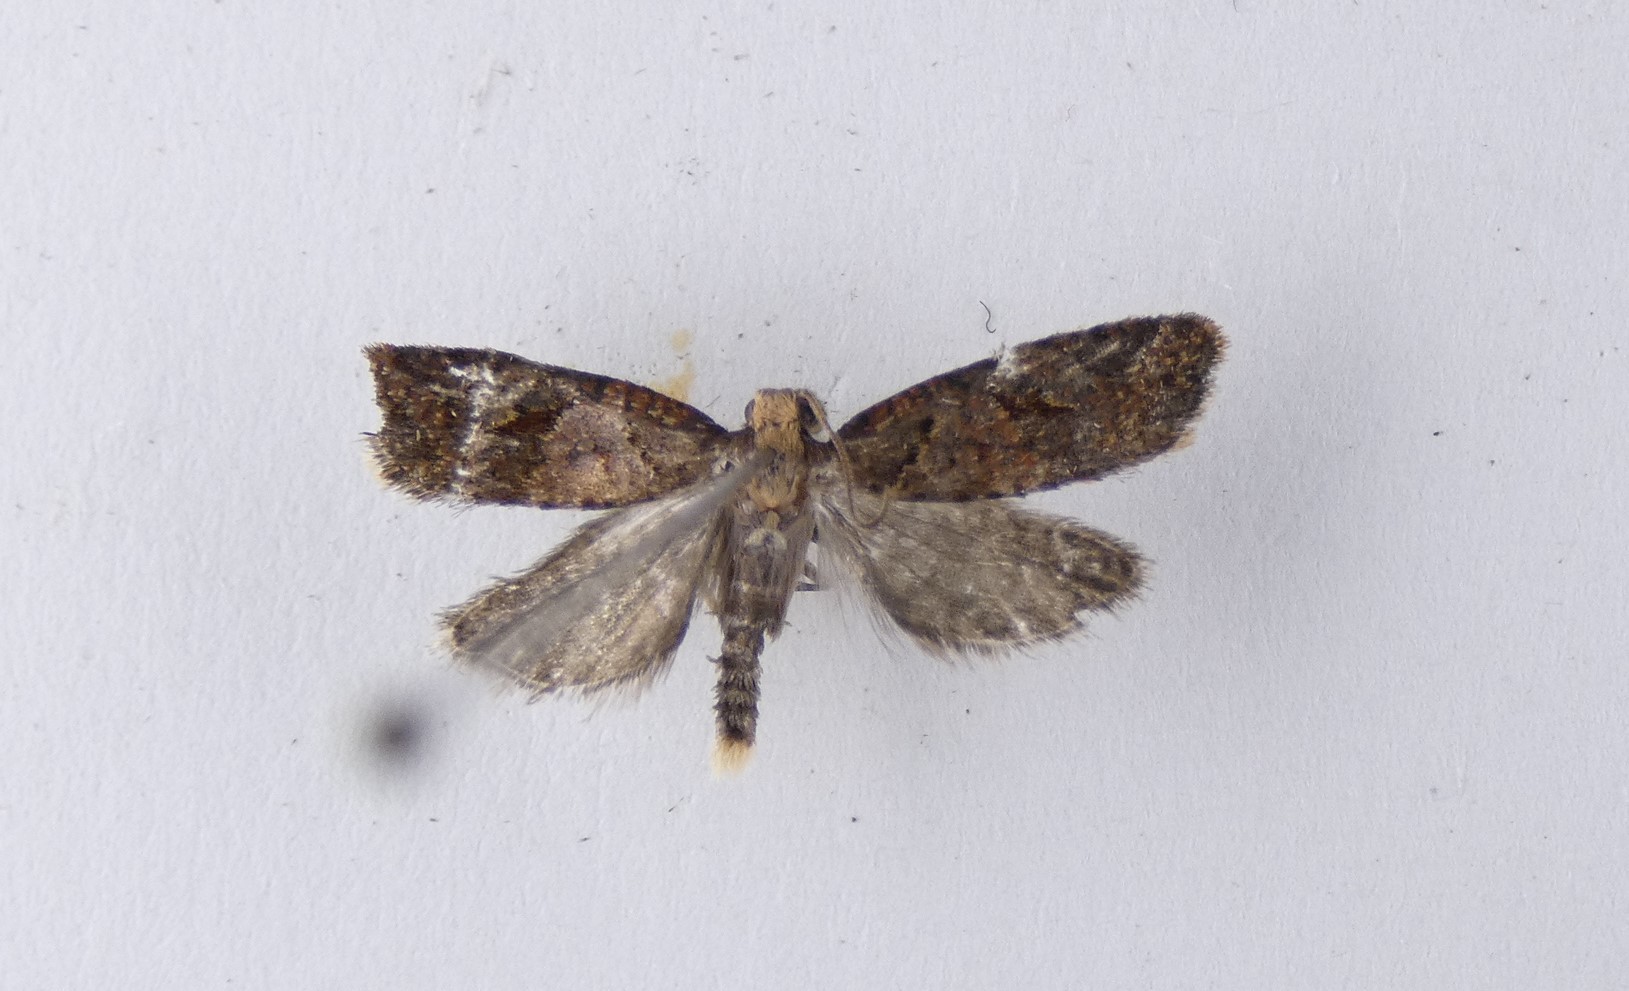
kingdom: Animalia
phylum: Arthropoda
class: Insecta
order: Lepidoptera
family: Tortricidae
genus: Capua
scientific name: Capua semiferana
